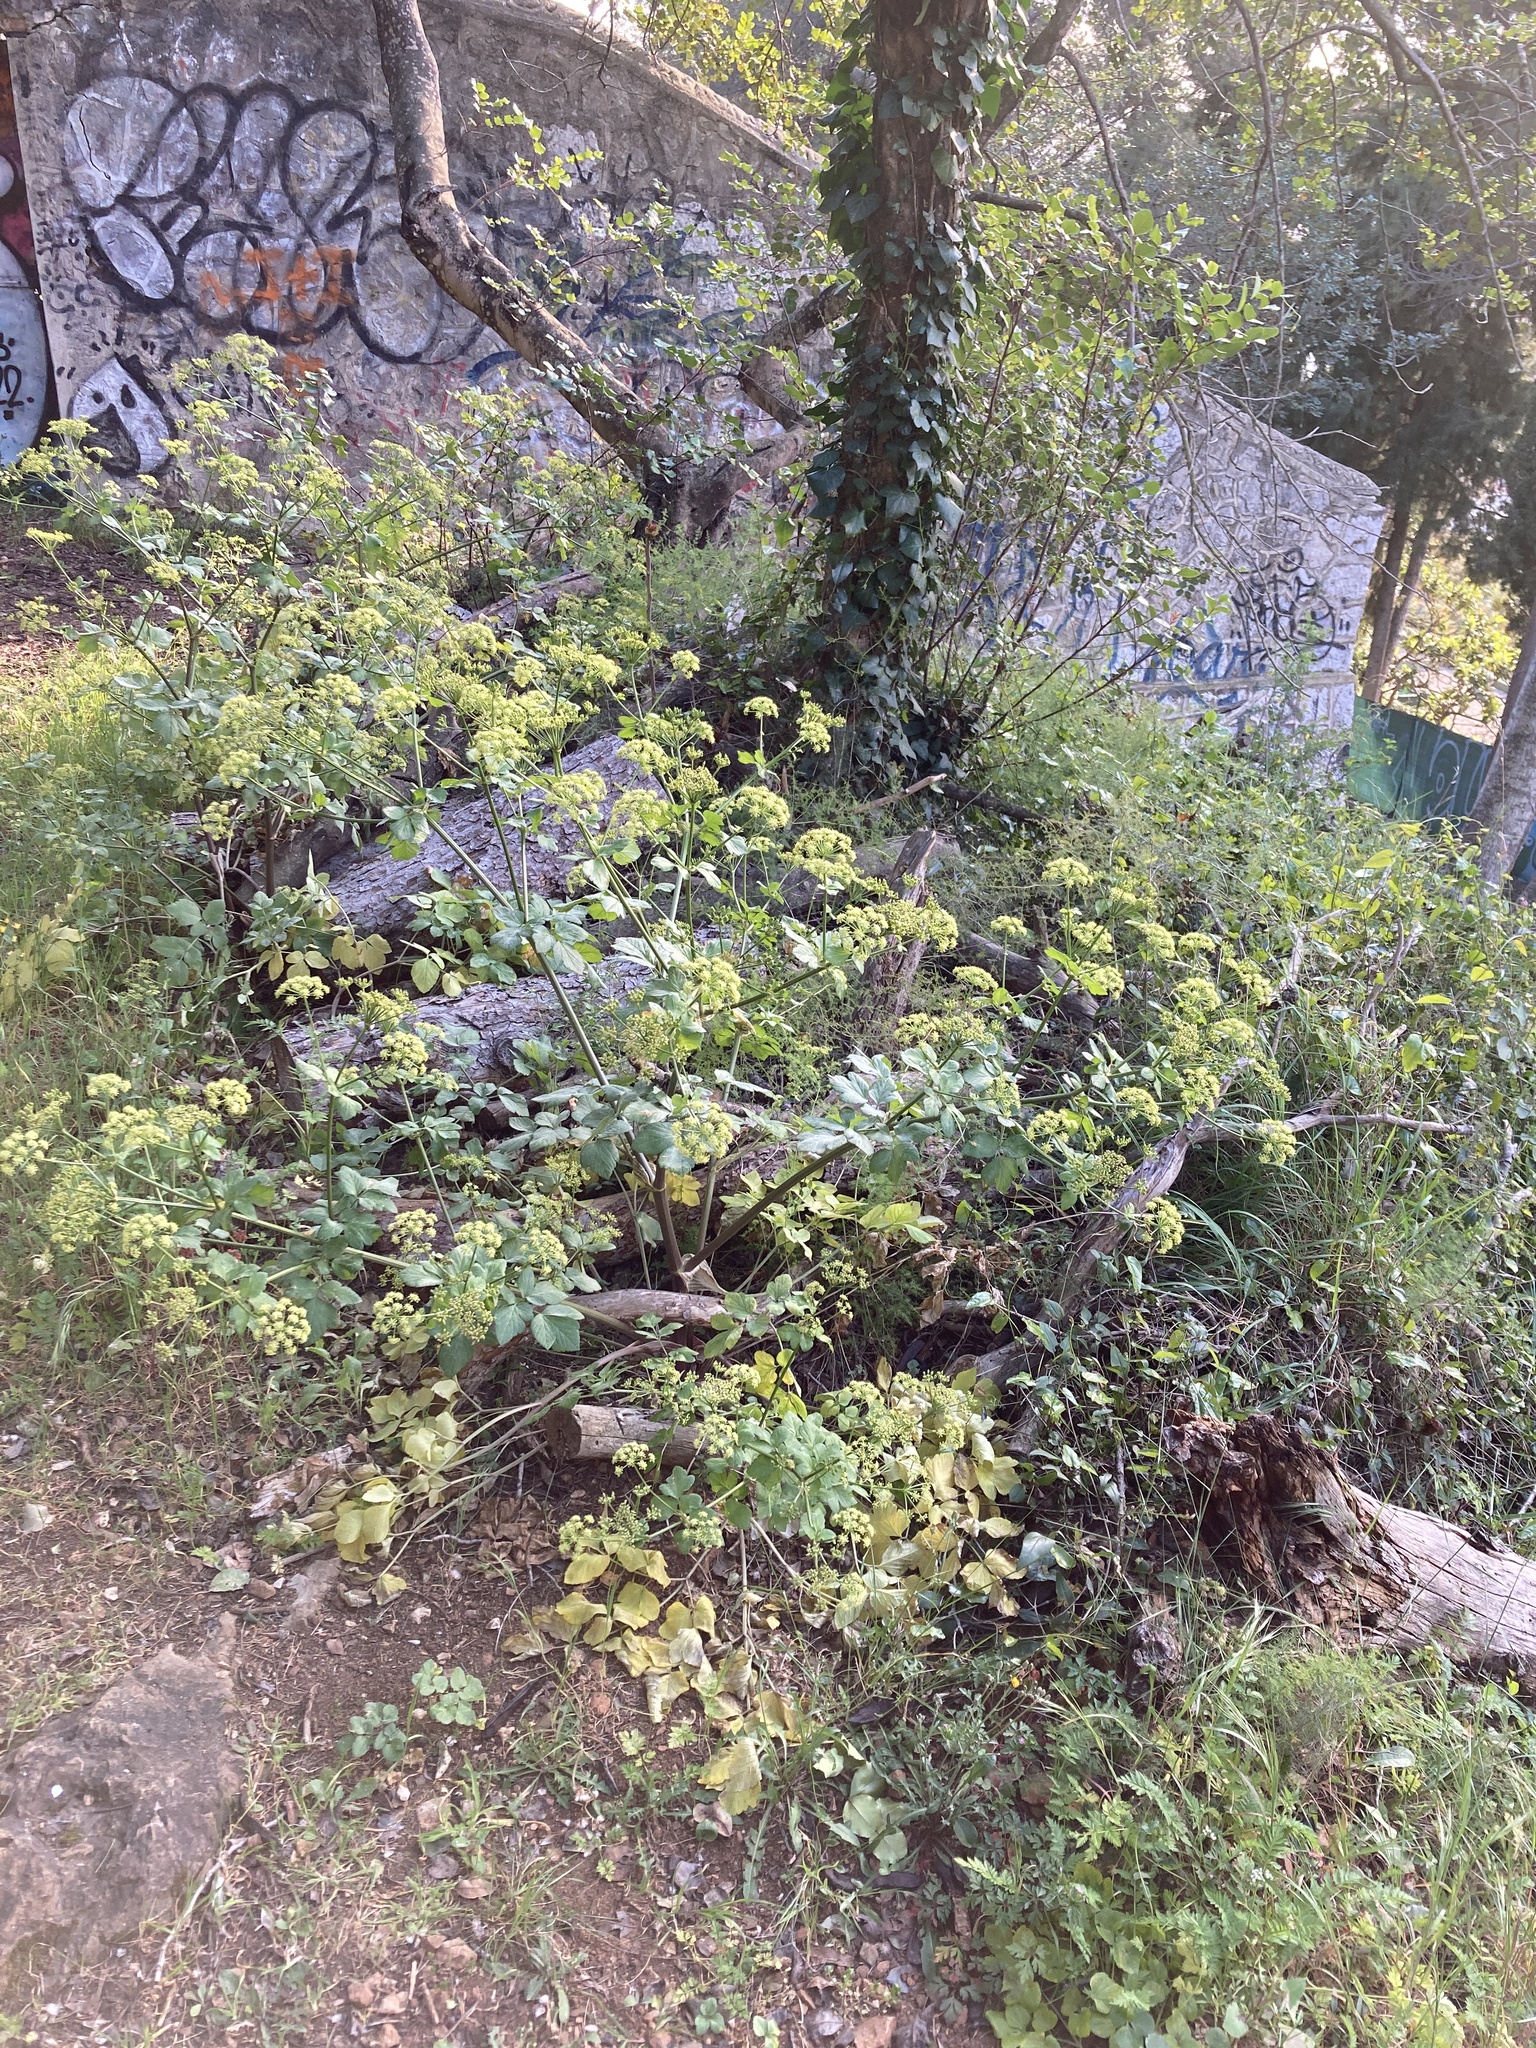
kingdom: Plantae
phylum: Tracheophyta
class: Magnoliopsida
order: Apiales
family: Apiaceae
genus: Smyrnium
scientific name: Smyrnium olusatrum
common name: Alexanders
